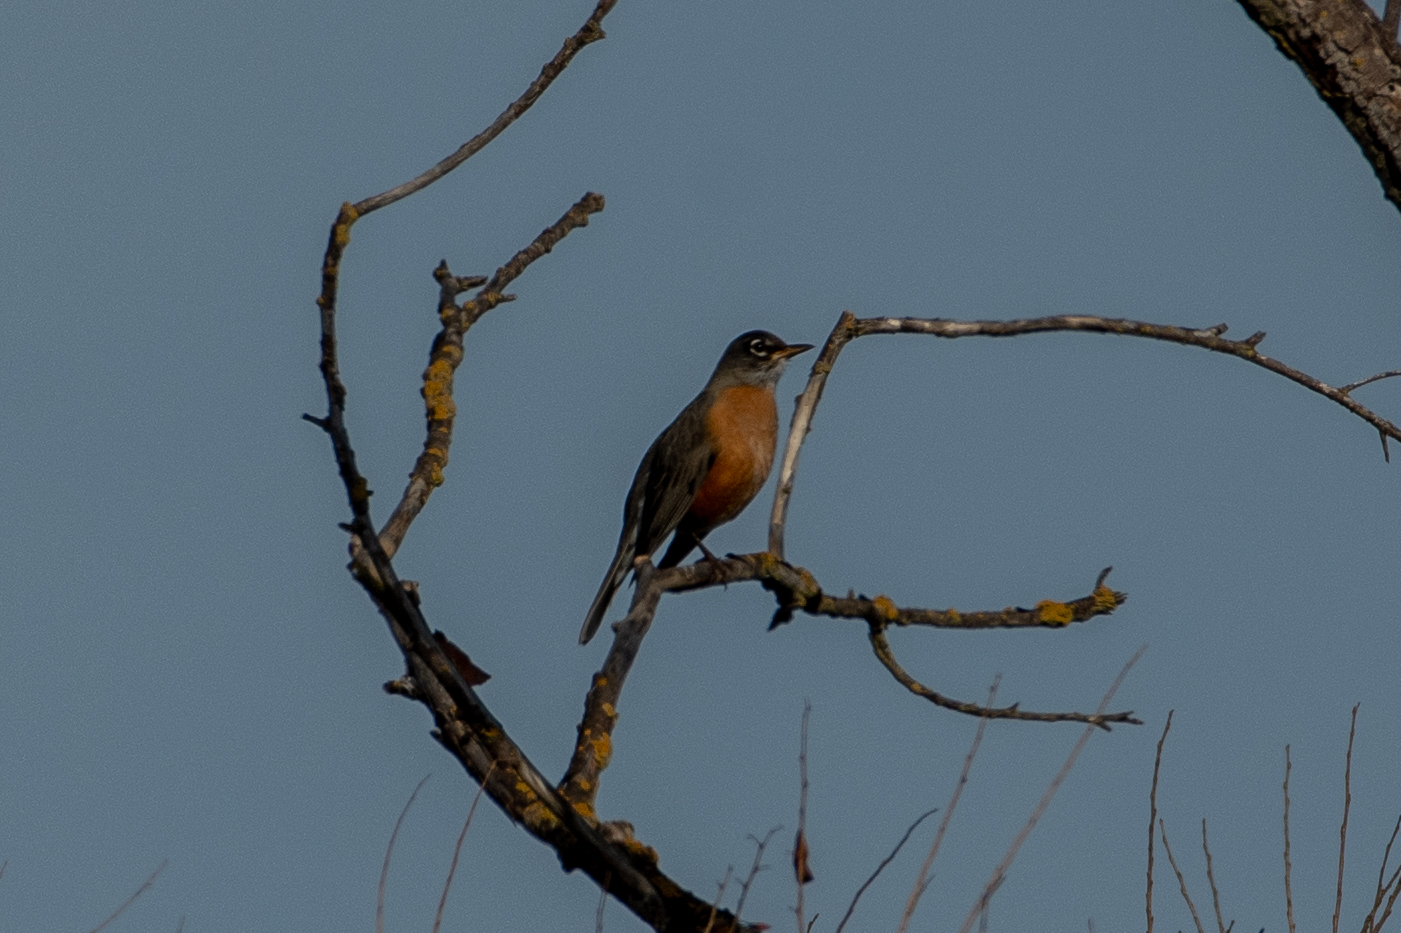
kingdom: Animalia
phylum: Chordata
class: Aves
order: Passeriformes
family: Turdidae
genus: Turdus
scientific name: Turdus migratorius
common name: American robin
